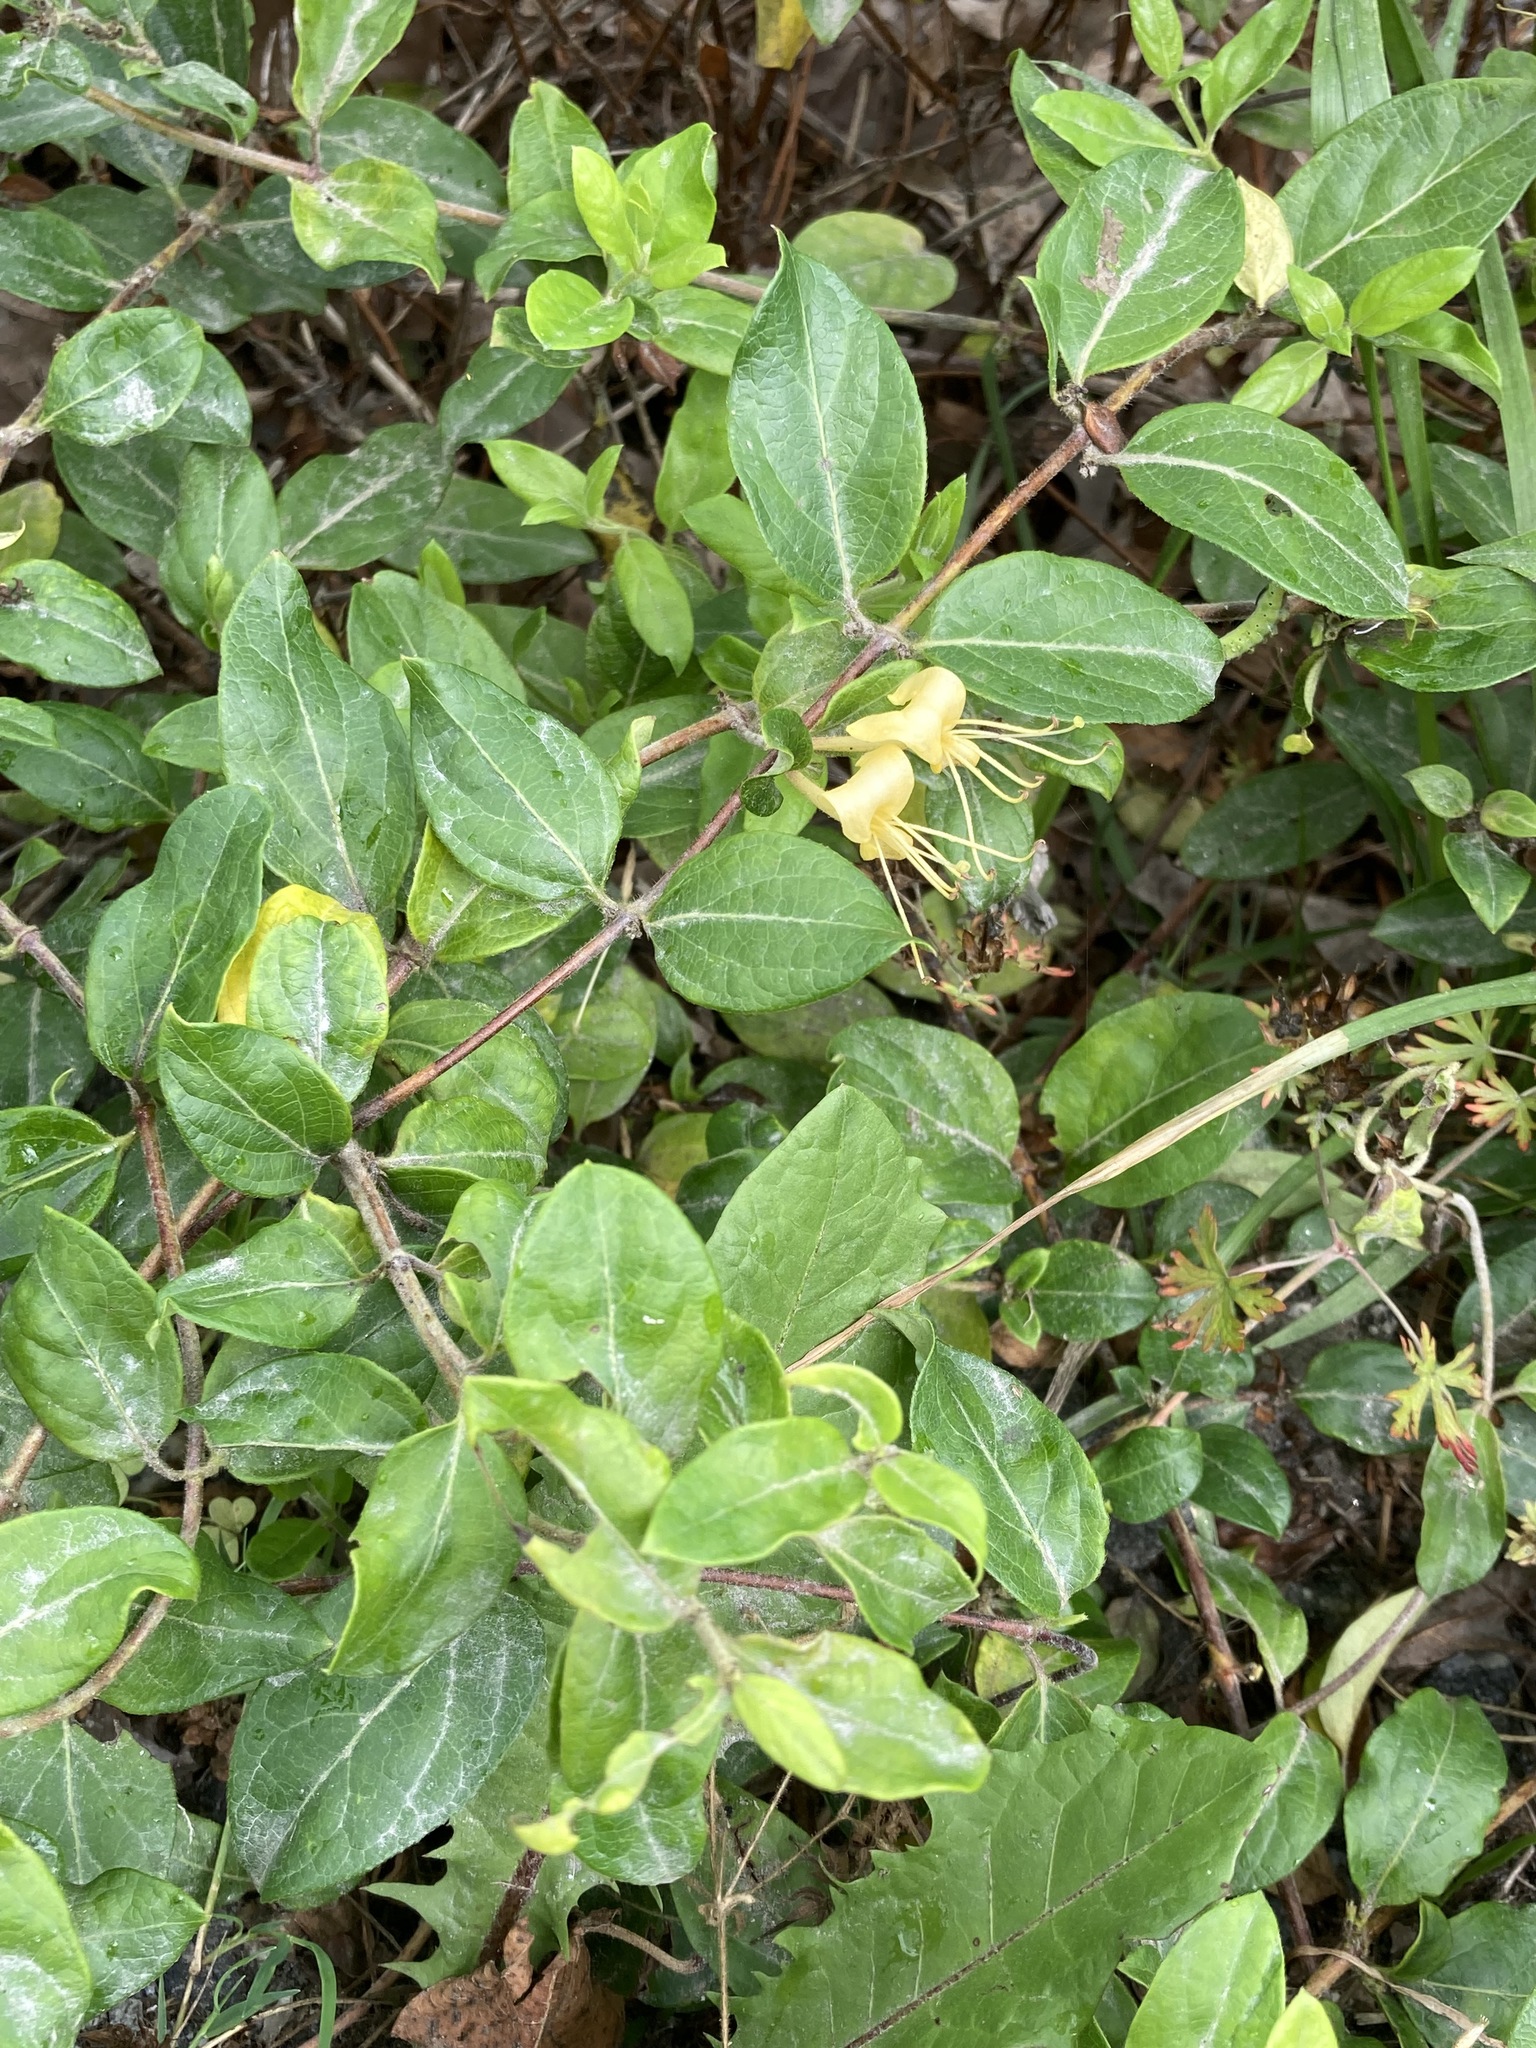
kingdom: Plantae
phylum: Tracheophyta
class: Magnoliopsida
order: Dipsacales
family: Caprifoliaceae
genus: Lonicera
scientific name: Lonicera japonica
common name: Japanese honeysuckle
